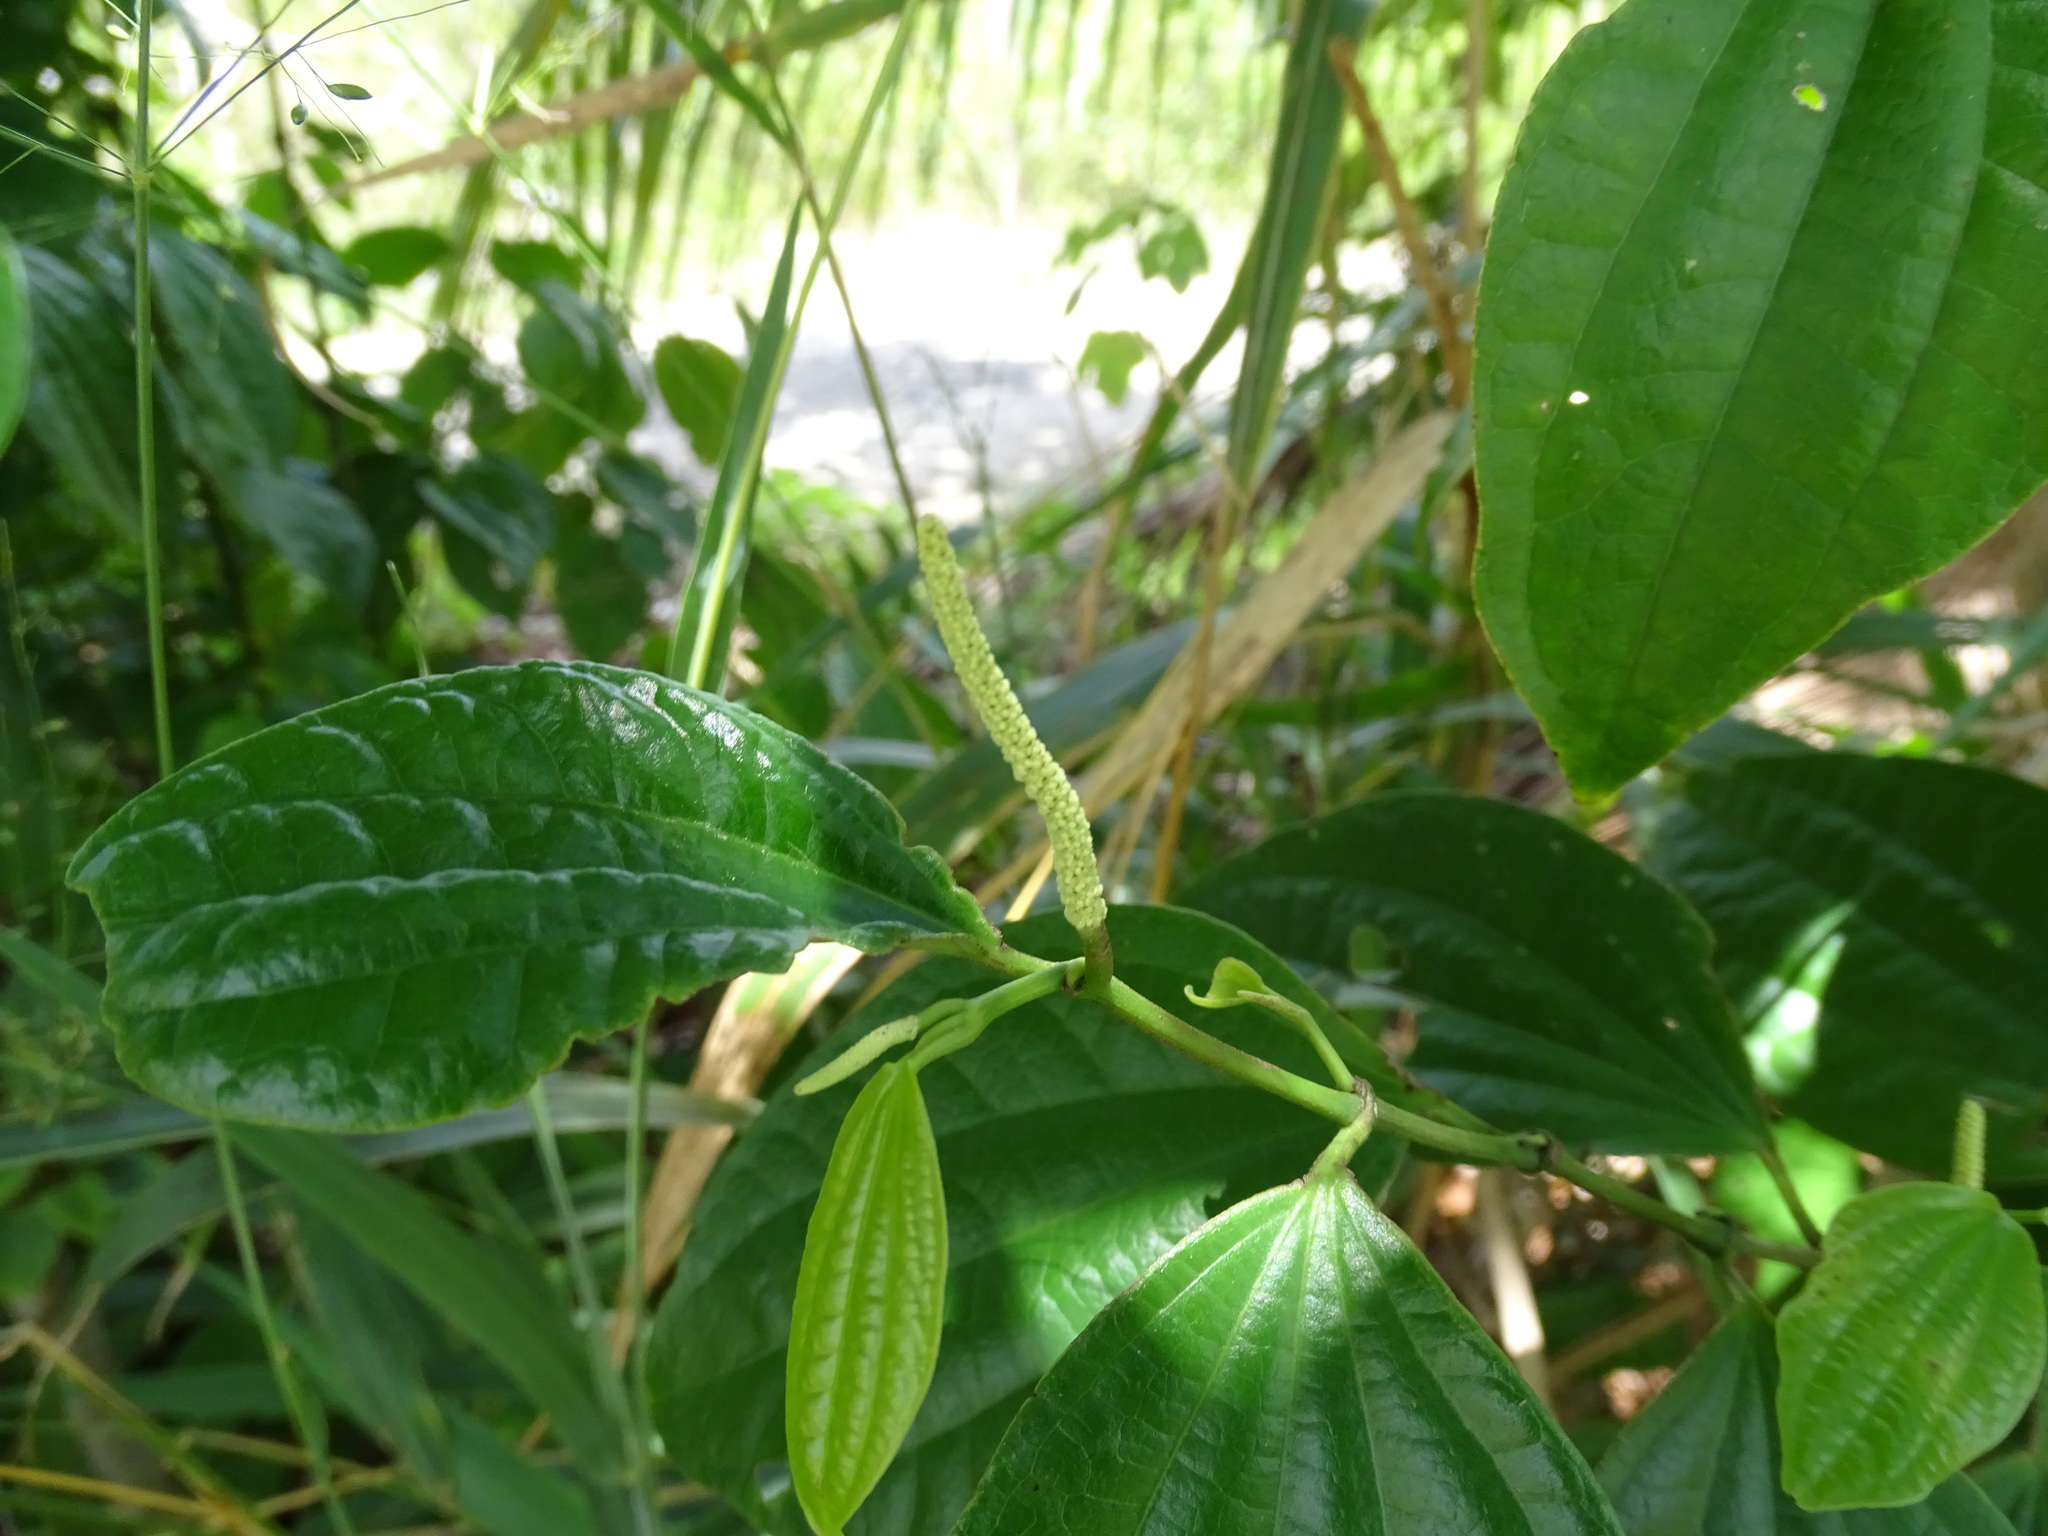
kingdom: Plantae
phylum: Tracheophyta
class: Magnoliopsida
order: Piperales
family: Piperaceae
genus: Piper
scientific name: Piper psilorhachis
